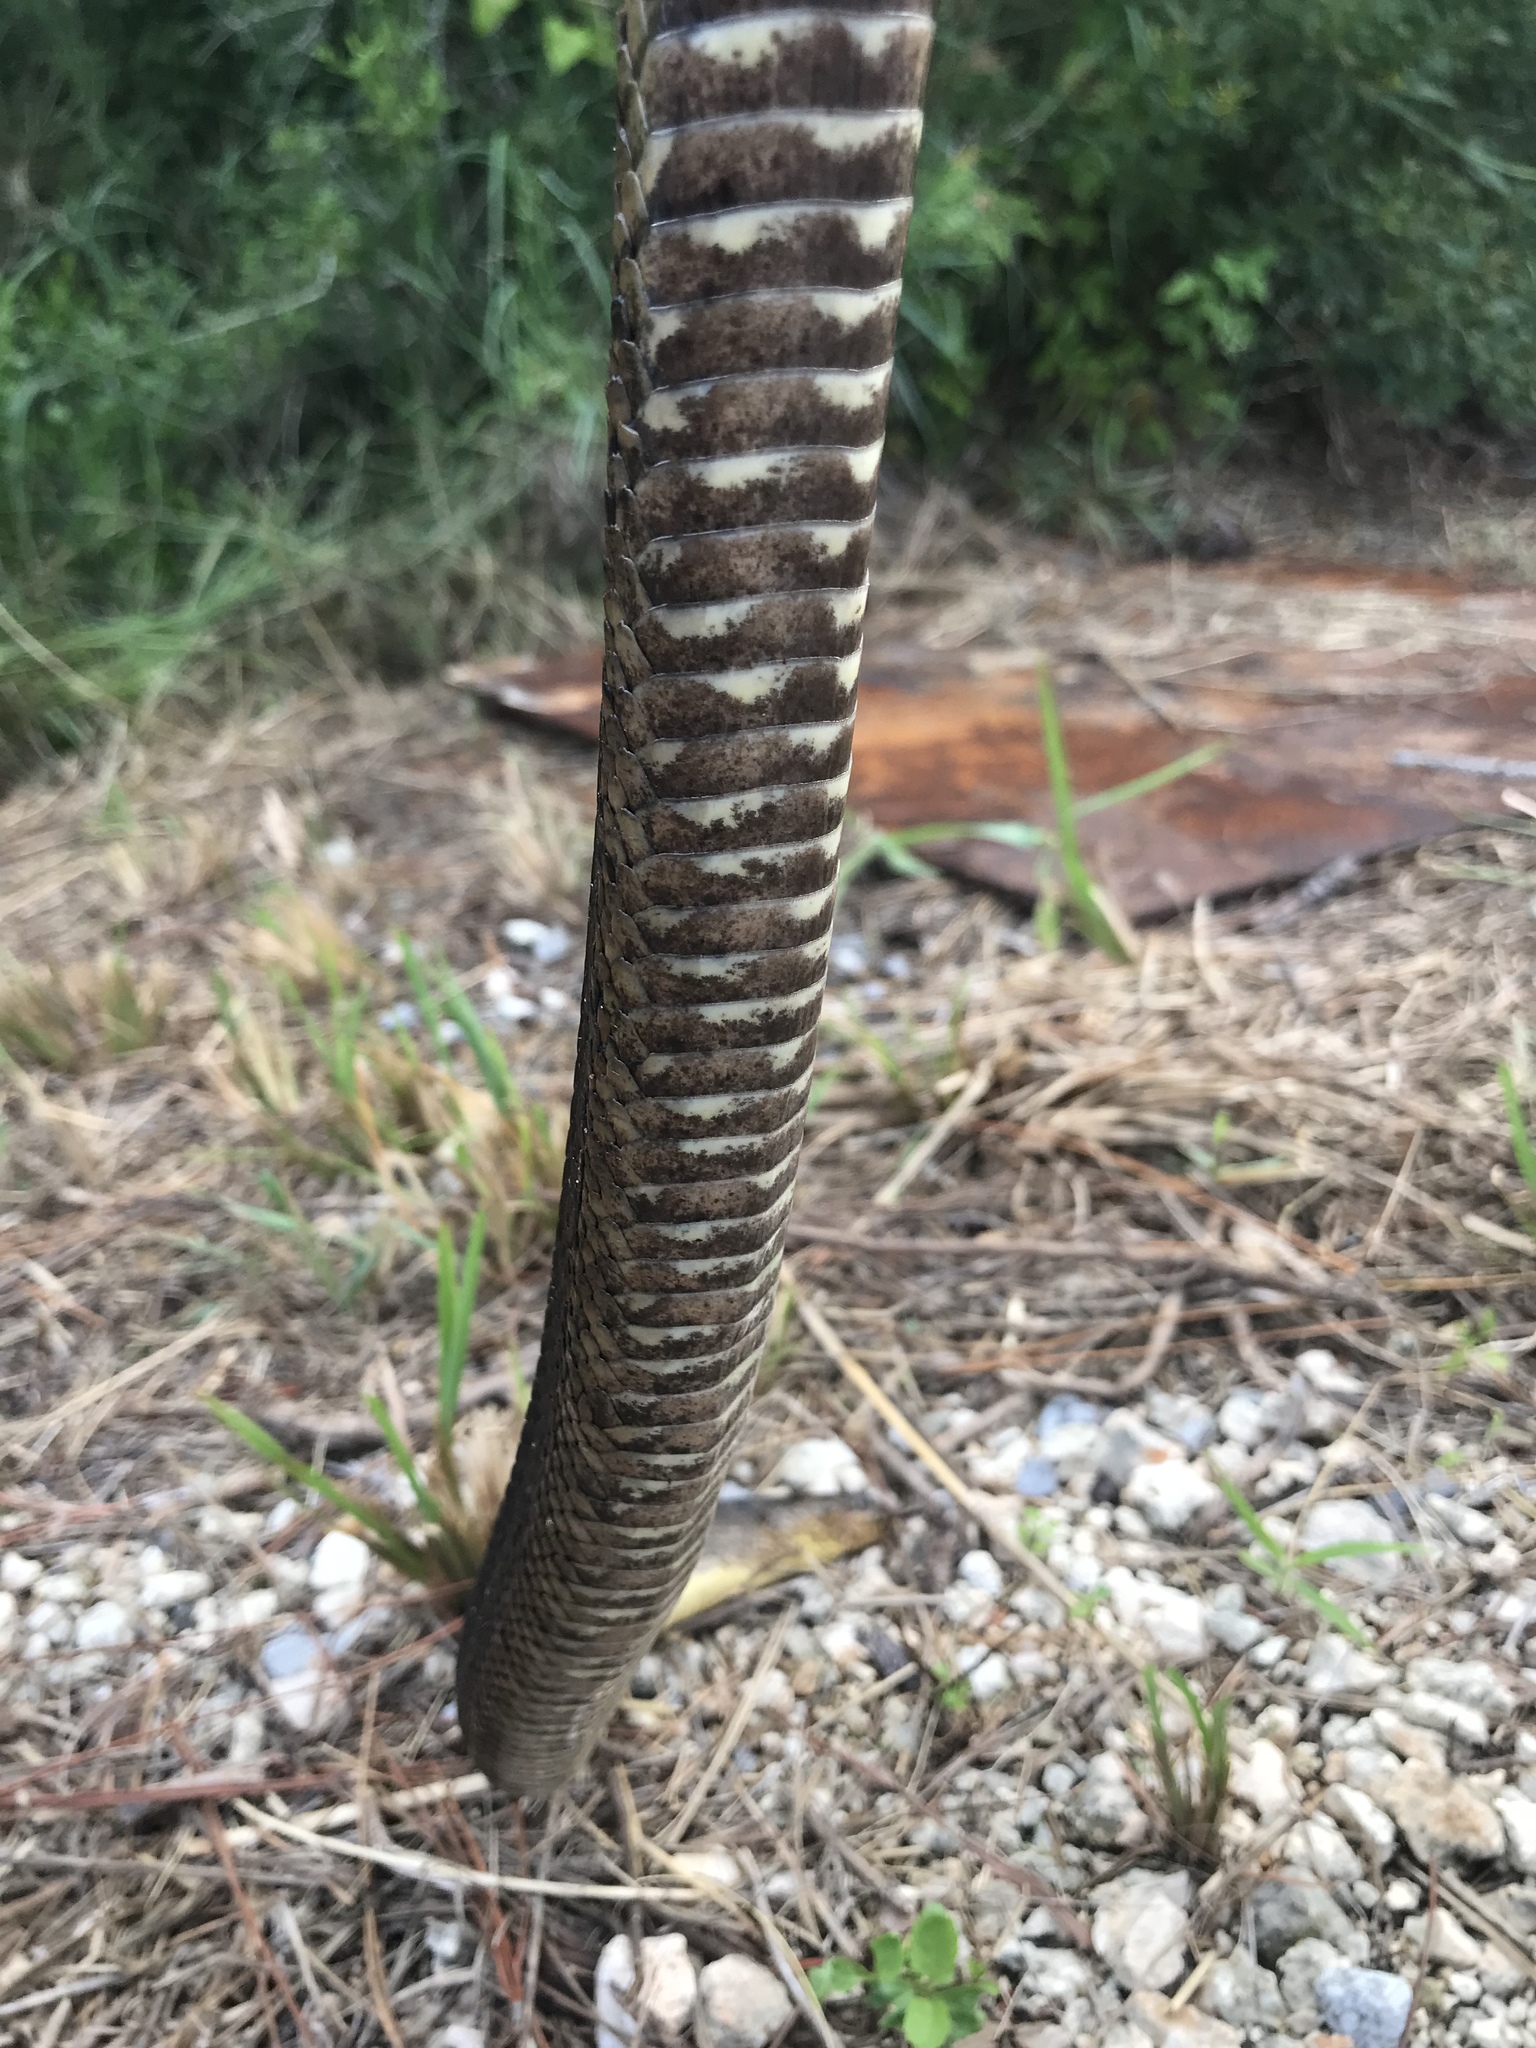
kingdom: Animalia
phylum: Chordata
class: Squamata
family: Colubridae
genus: Nerodia
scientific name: Nerodia cyclopion
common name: Mississippi green water snake
